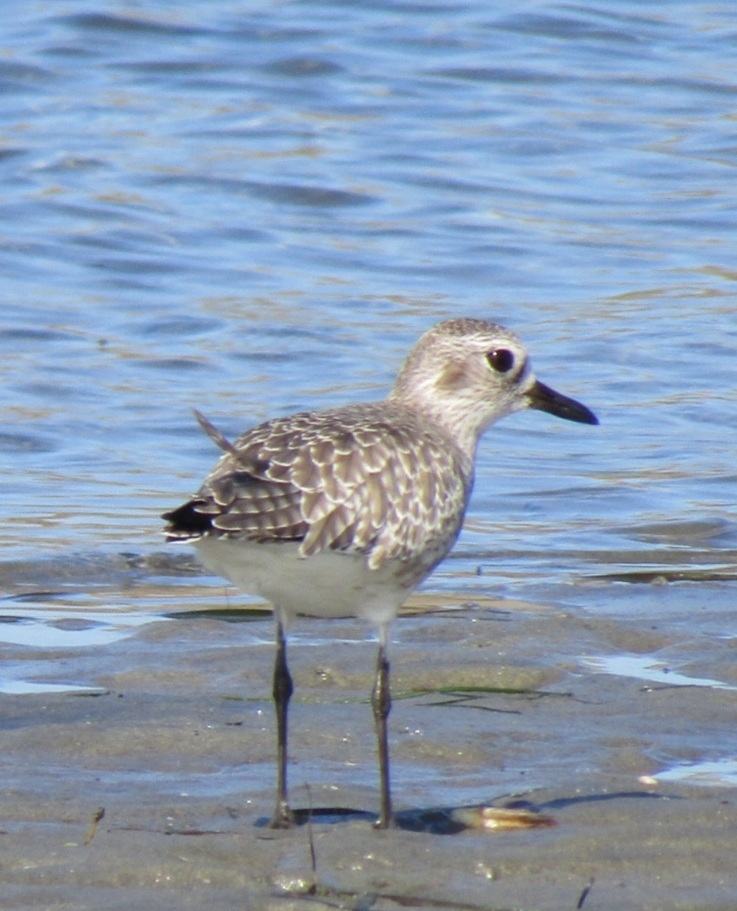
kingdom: Animalia
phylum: Chordata
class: Aves
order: Charadriiformes
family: Charadriidae
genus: Pluvialis
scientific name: Pluvialis squatarola
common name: Grey plover
